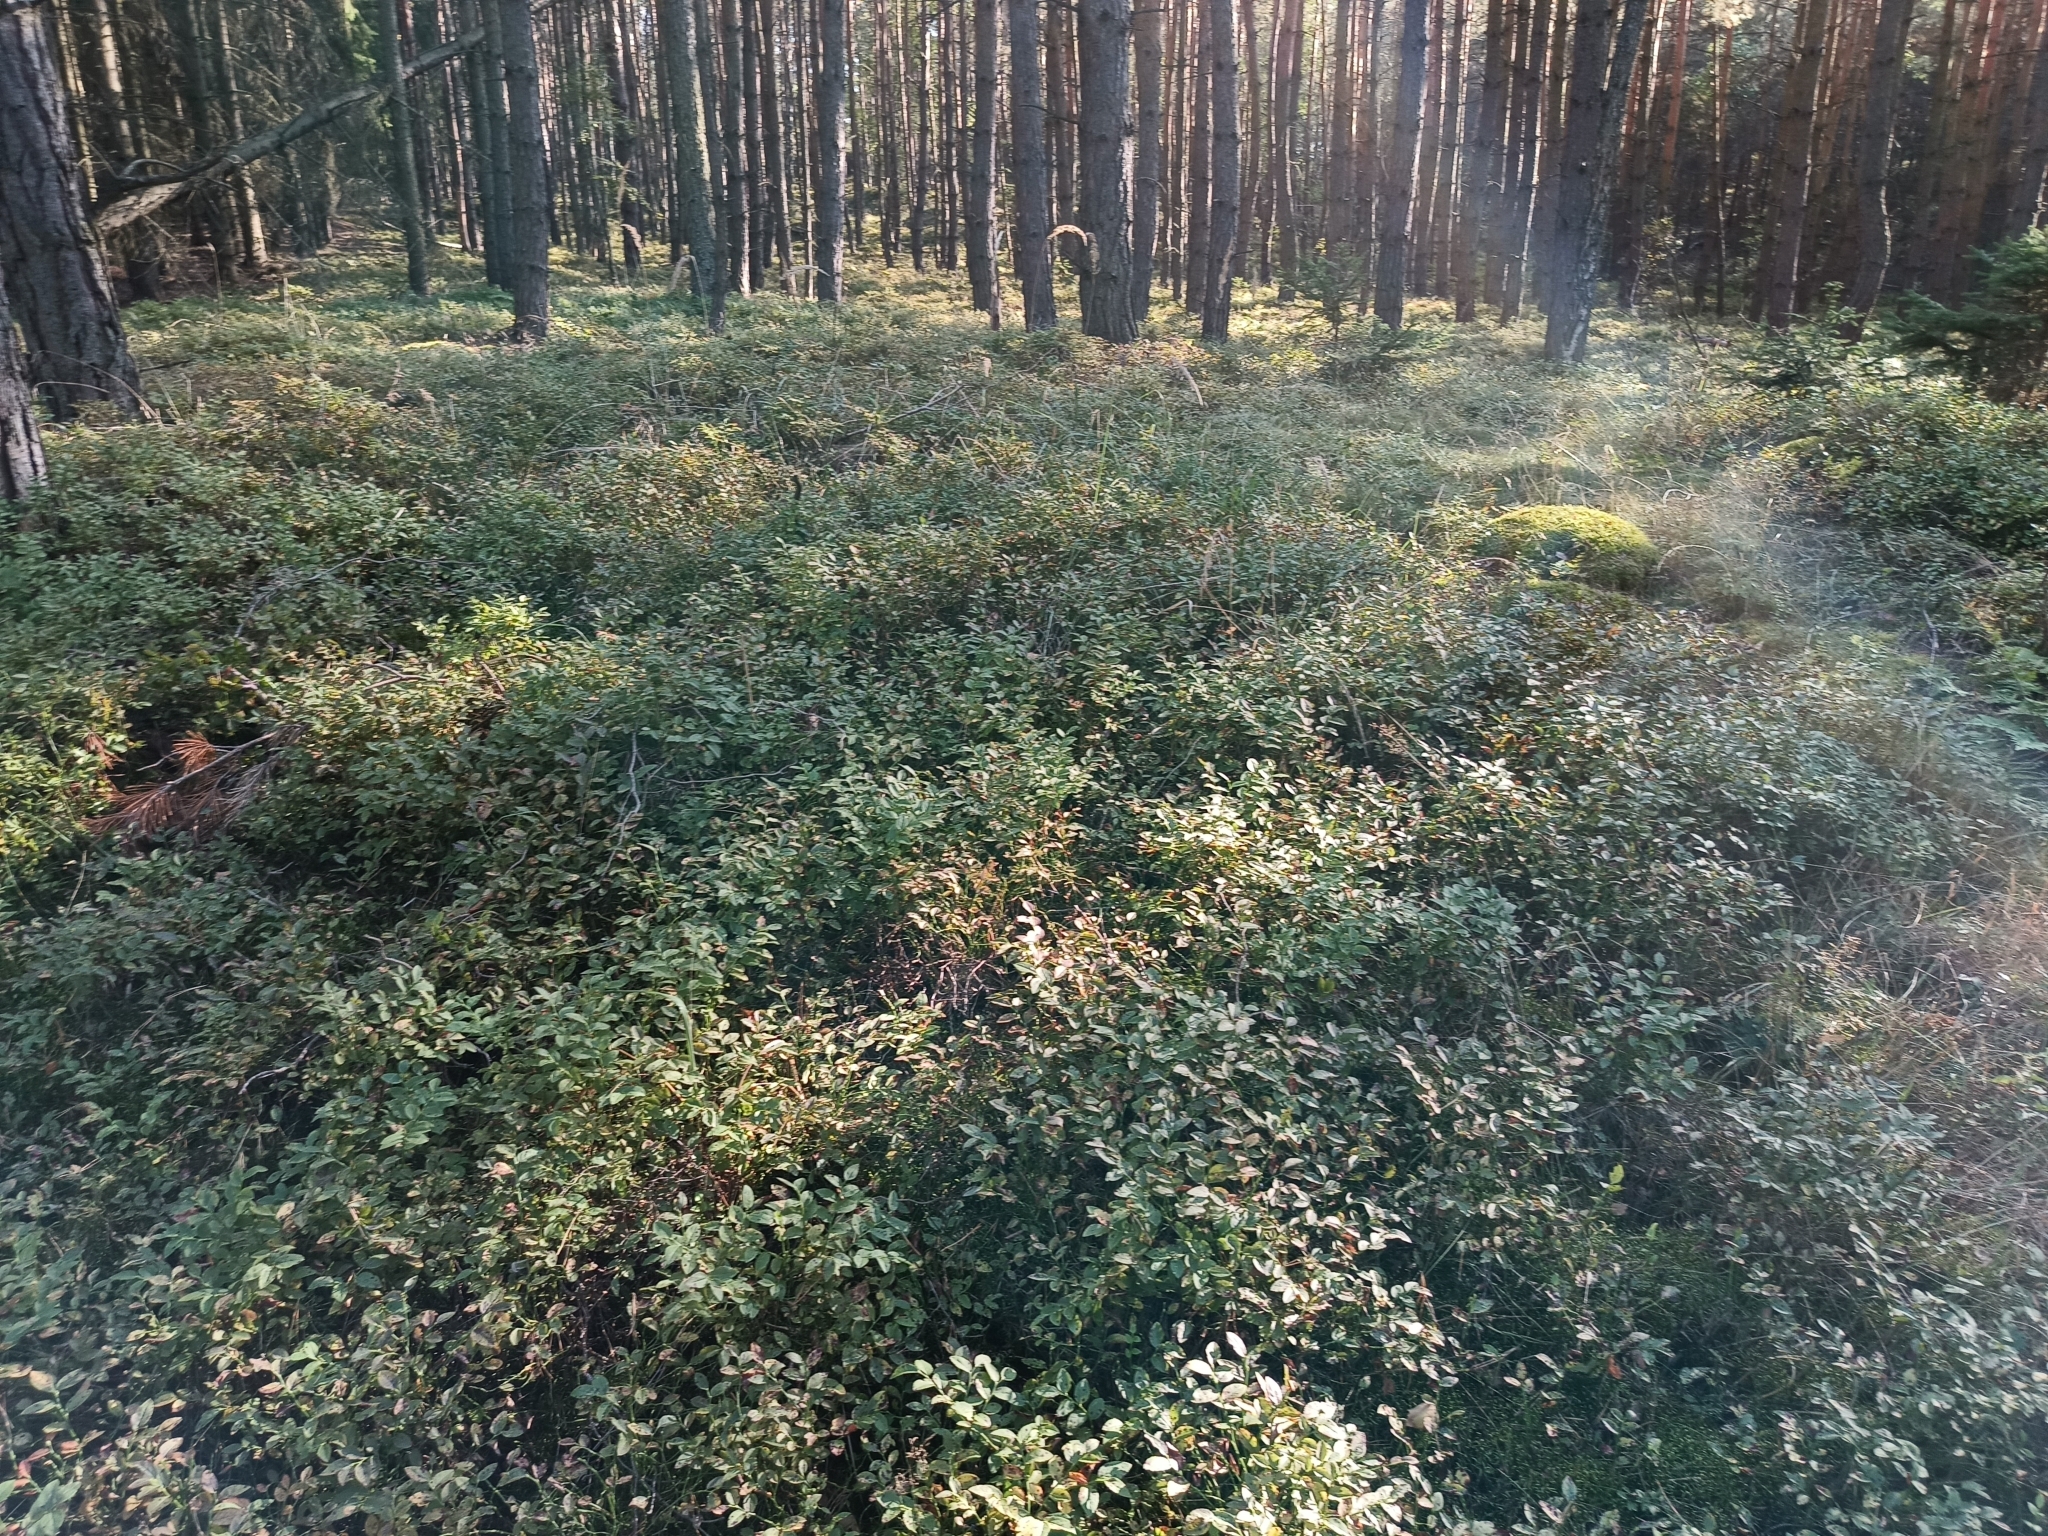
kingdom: Plantae
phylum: Tracheophyta
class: Magnoliopsida
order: Ericales
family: Ericaceae
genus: Vaccinium
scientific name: Vaccinium myrtillus
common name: Bilberry
